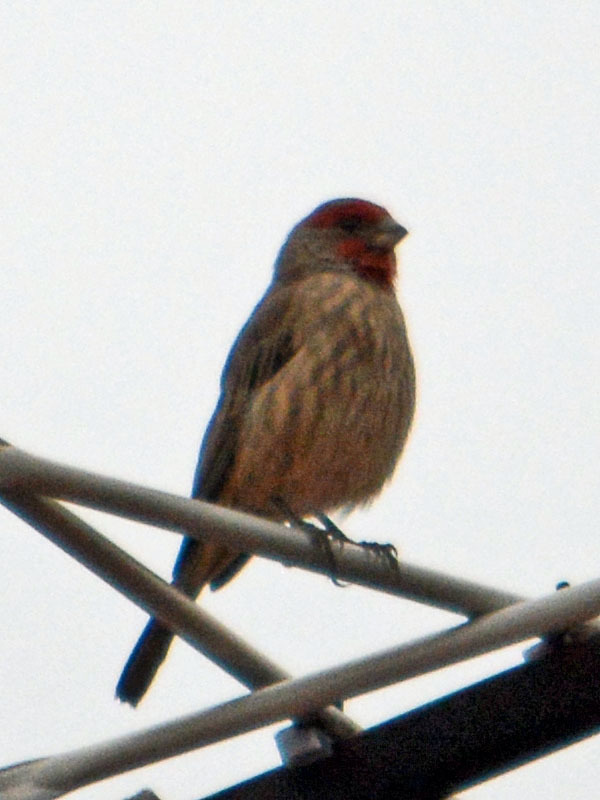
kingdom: Animalia
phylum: Chordata
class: Aves
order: Passeriformes
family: Fringillidae
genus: Haemorhous
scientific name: Haemorhous mexicanus
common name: House finch
